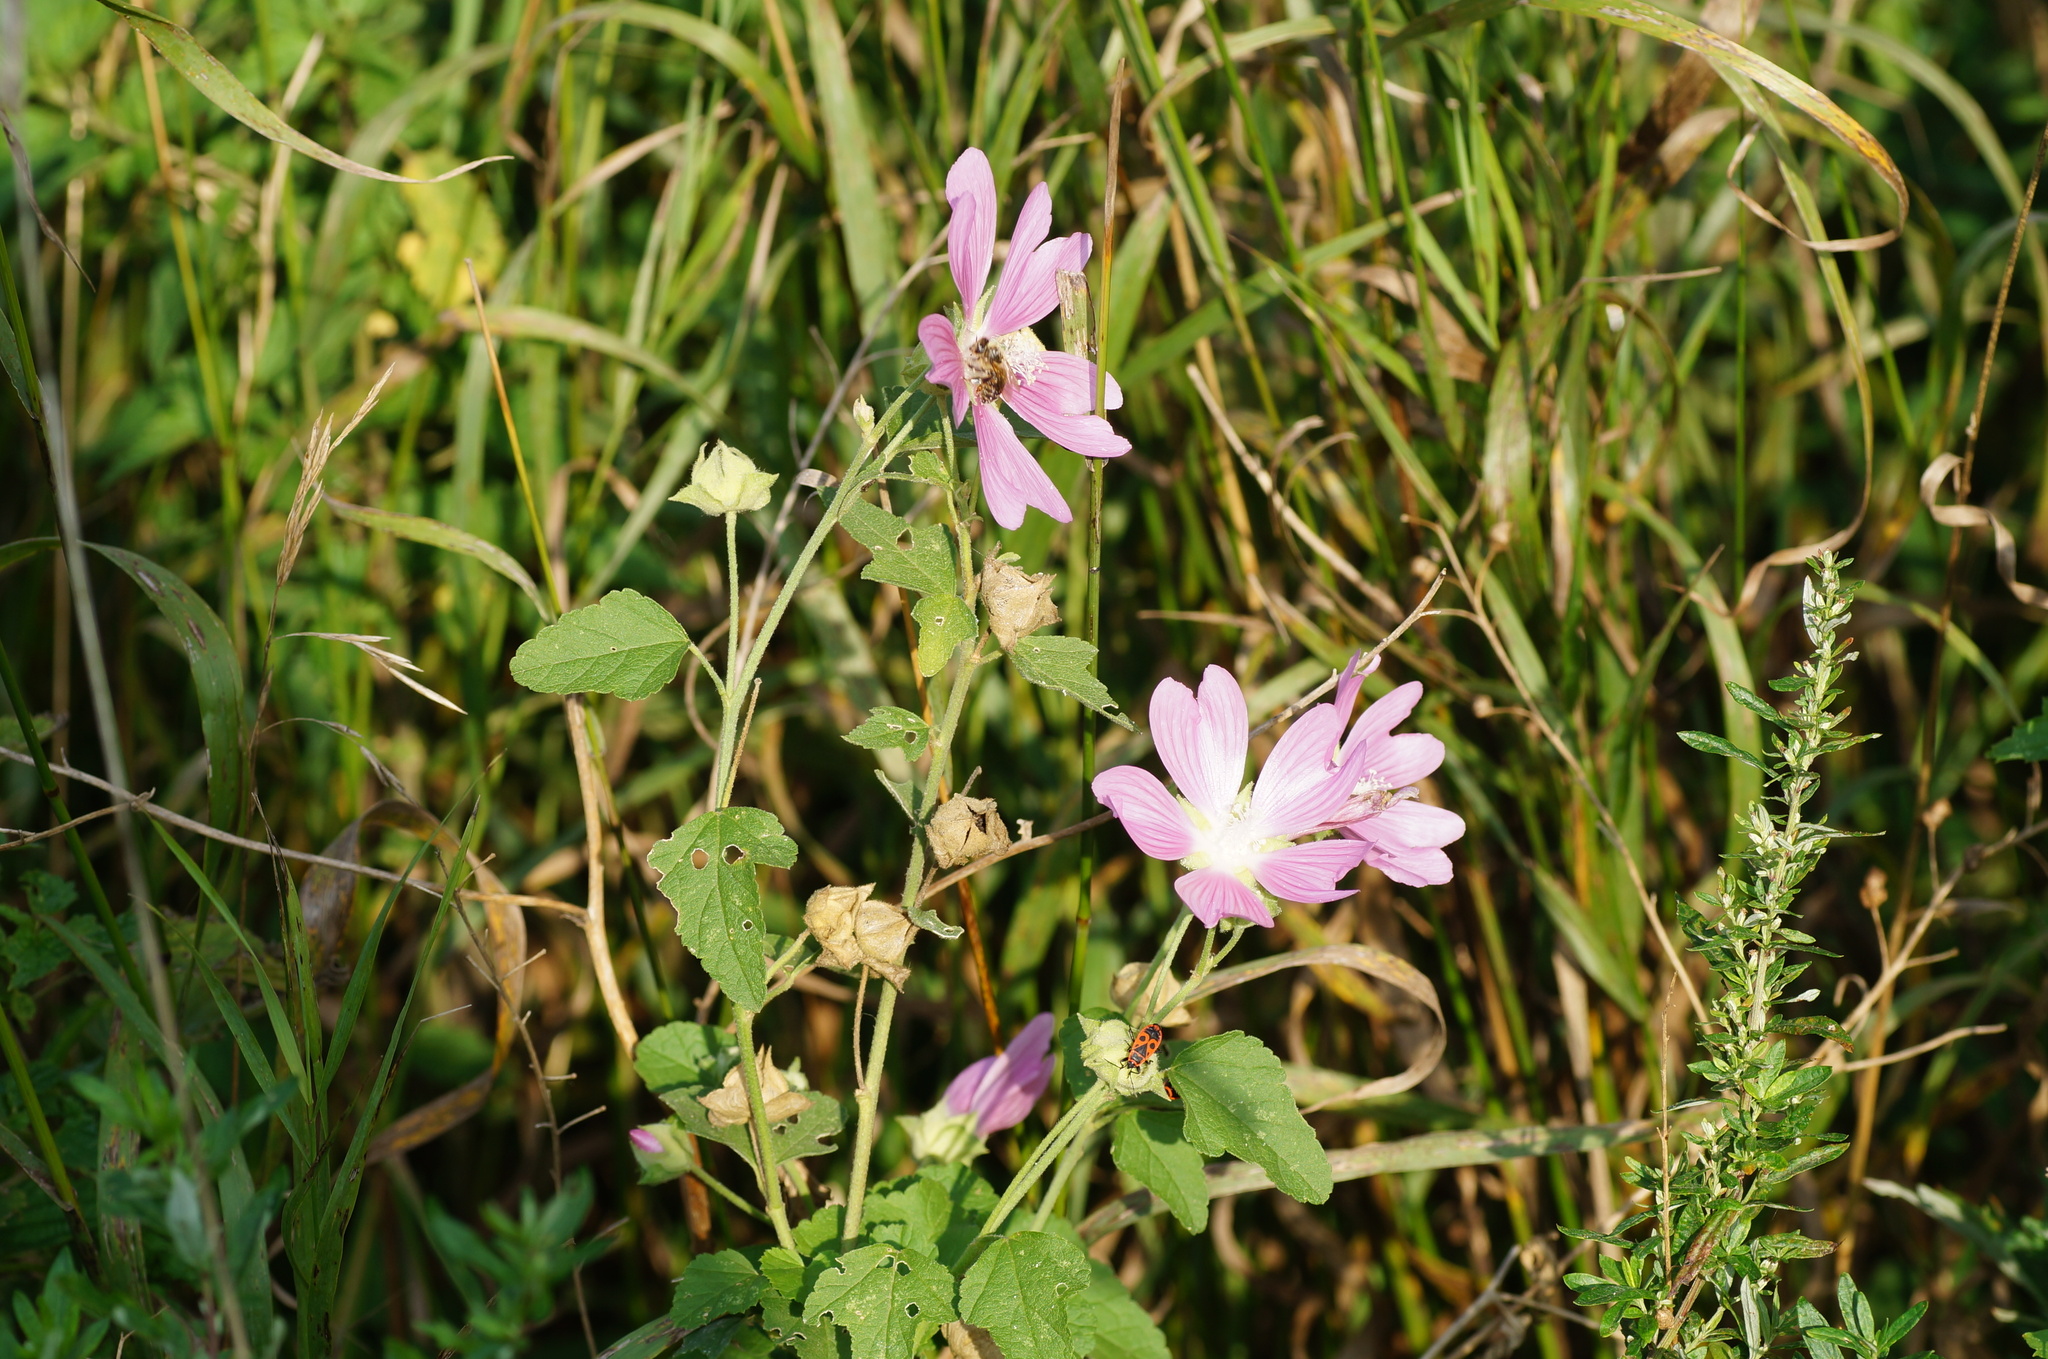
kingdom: Plantae
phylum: Tracheophyta
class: Magnoliopsida
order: Malvales
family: Malvaceae
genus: Malva
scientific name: Malva thuringiaca
